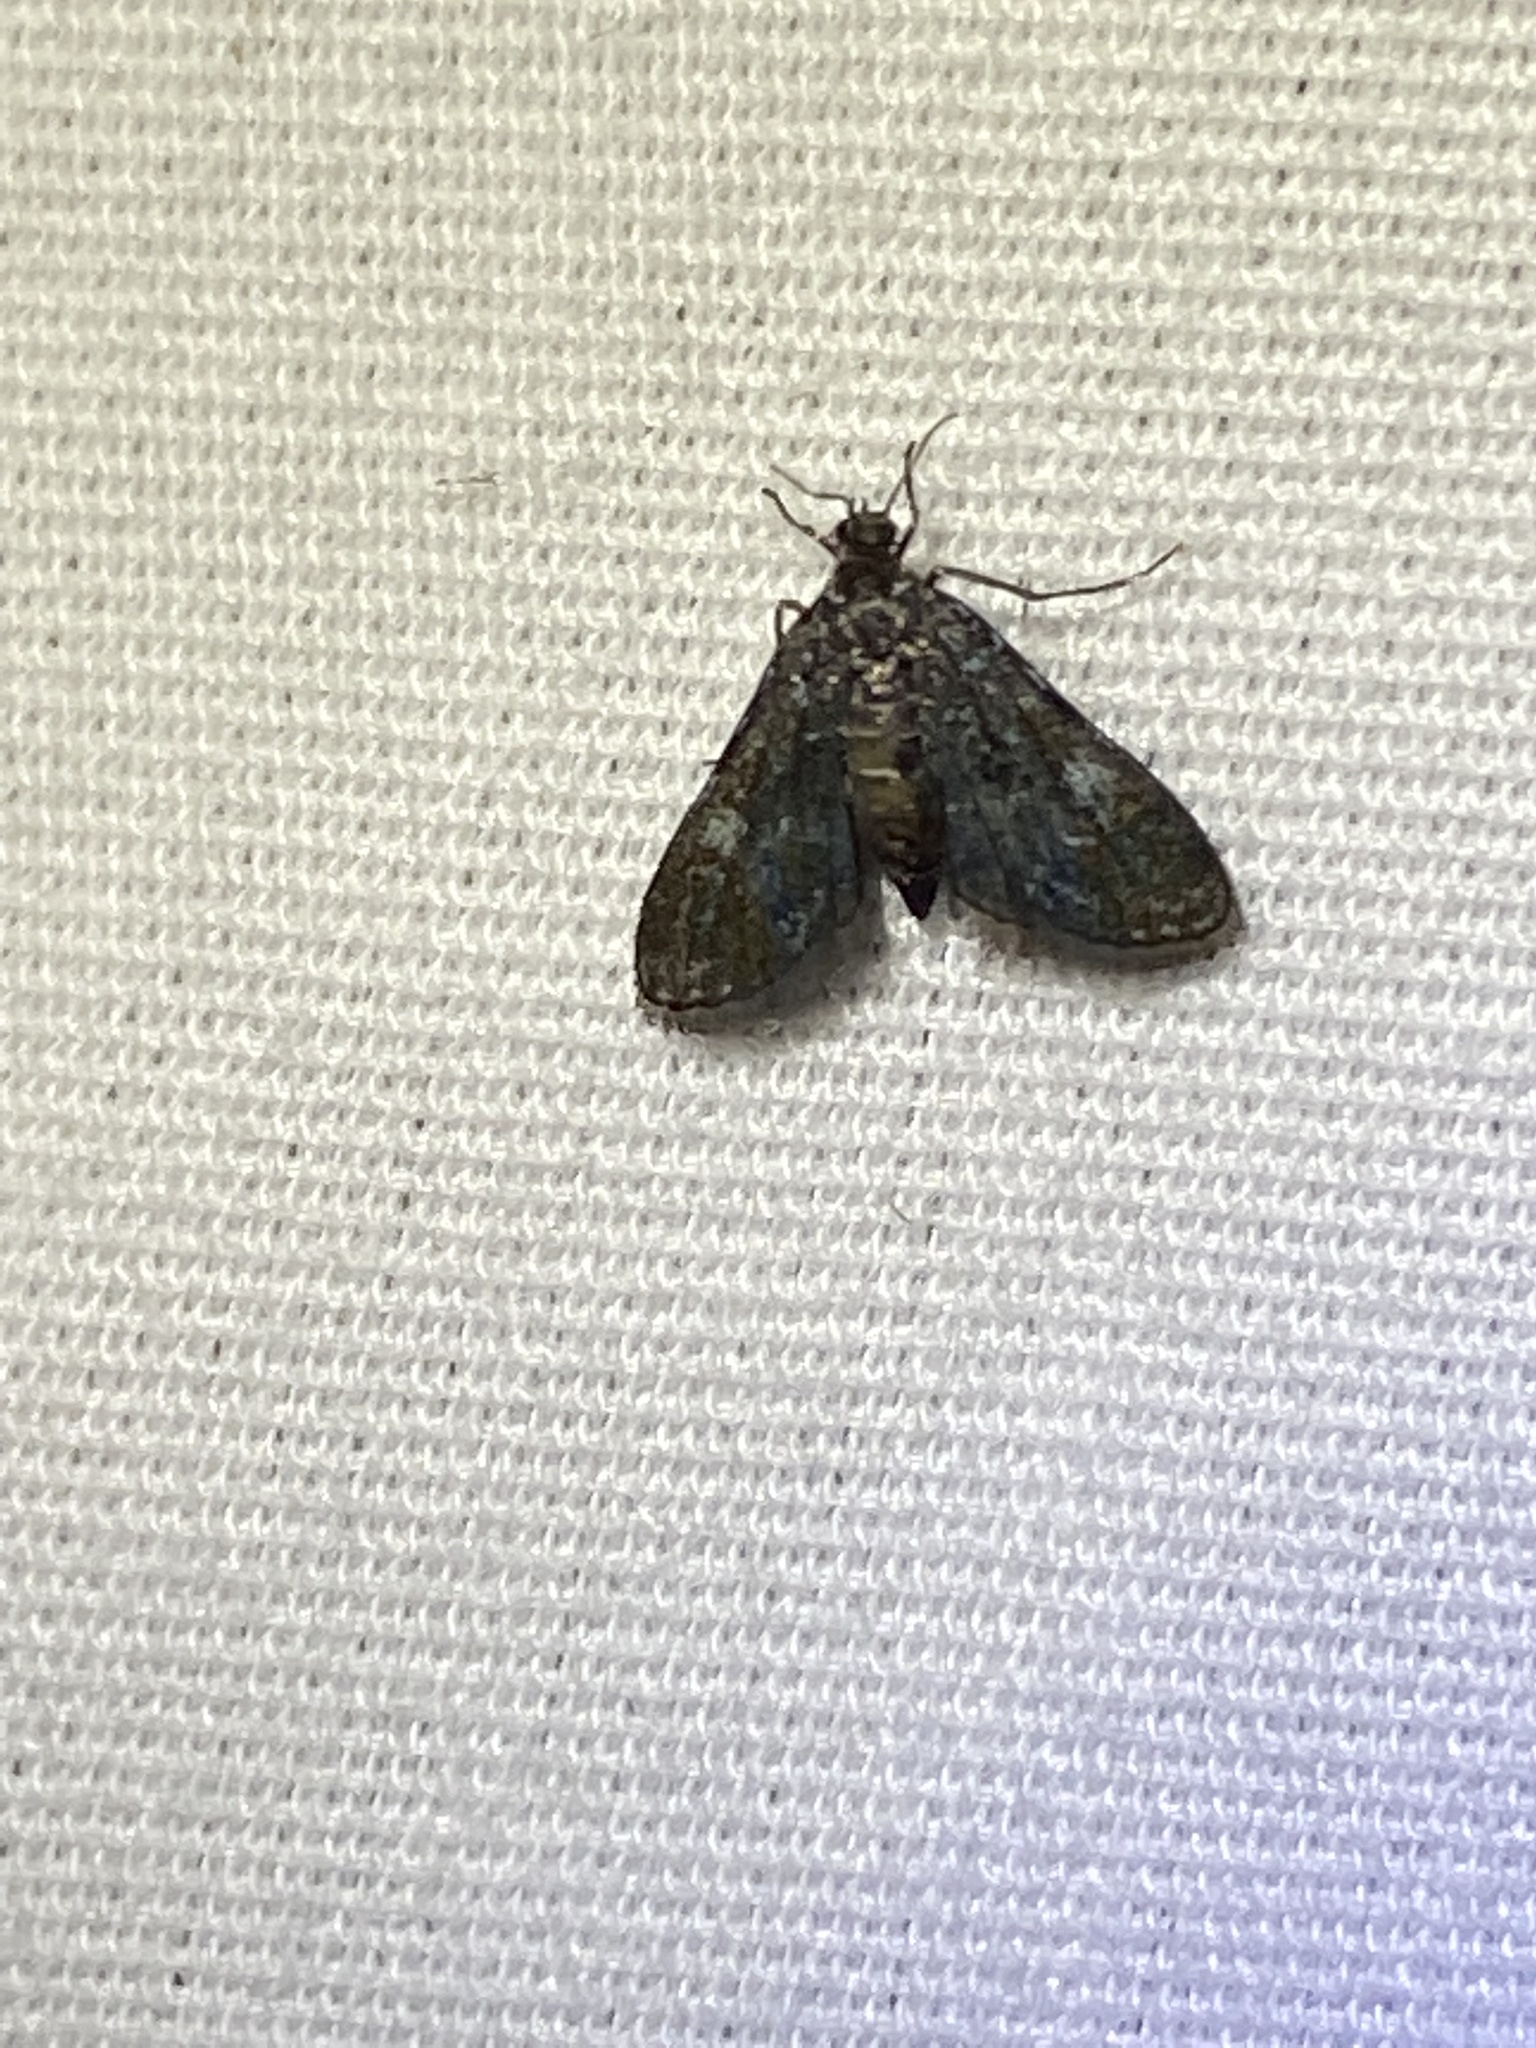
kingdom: Animalia
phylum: Arthropoda
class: Insecta
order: Lepidoptera
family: Crambidae
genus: Elophila
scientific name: Elophila tinealis
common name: Black duckweed moth
